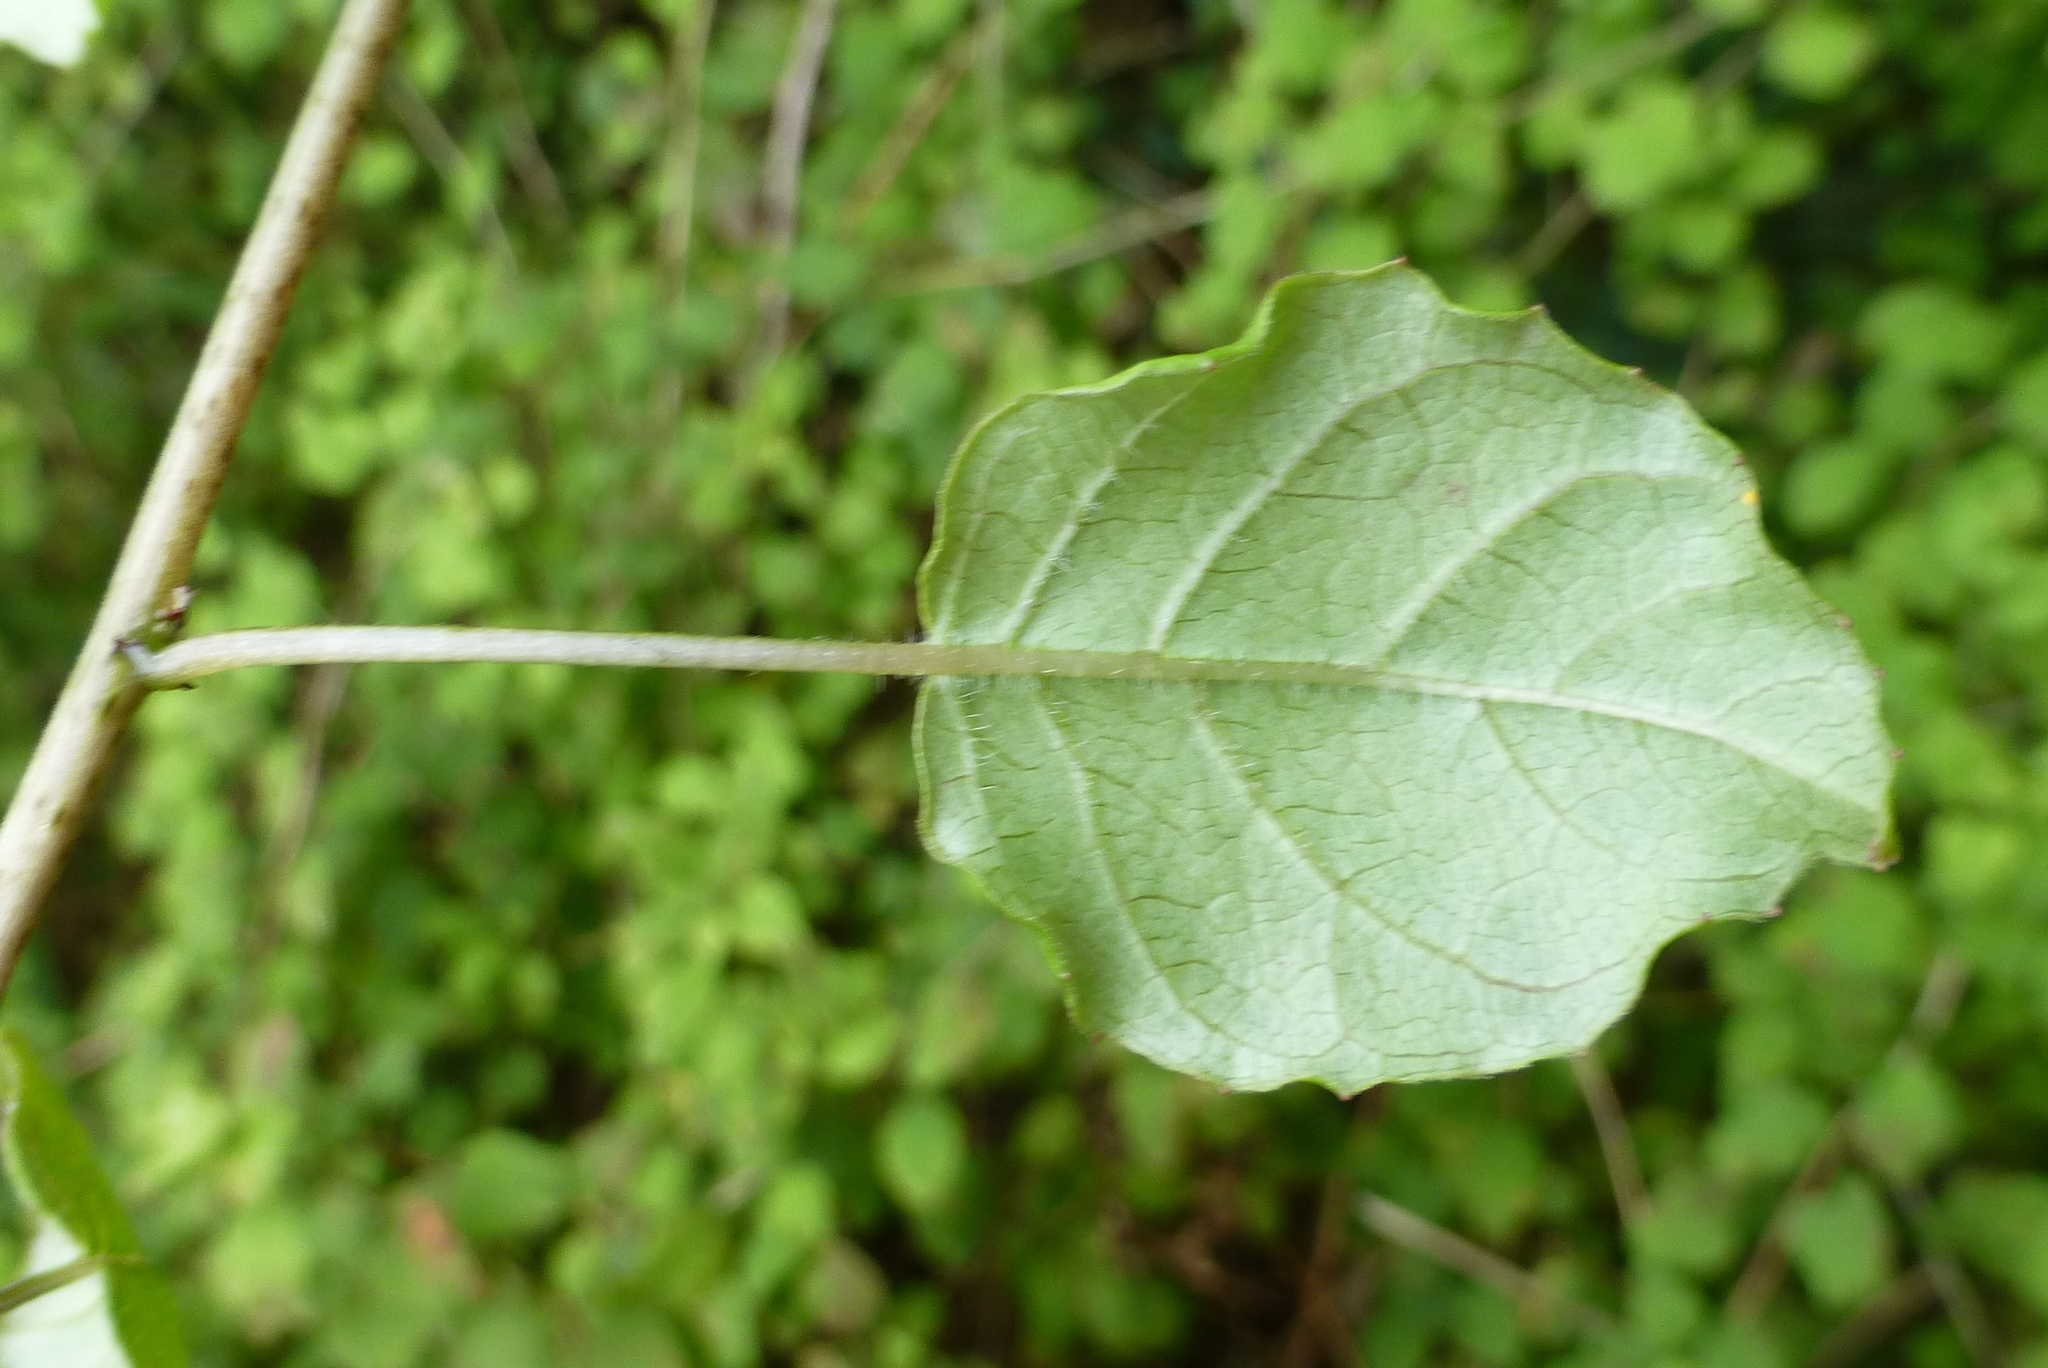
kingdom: Plantae
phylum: Tracheophyta
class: Magnoliopsida
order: Myrtales
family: Onagraceae
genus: Fuchsia
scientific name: Fuchsia perscandens
